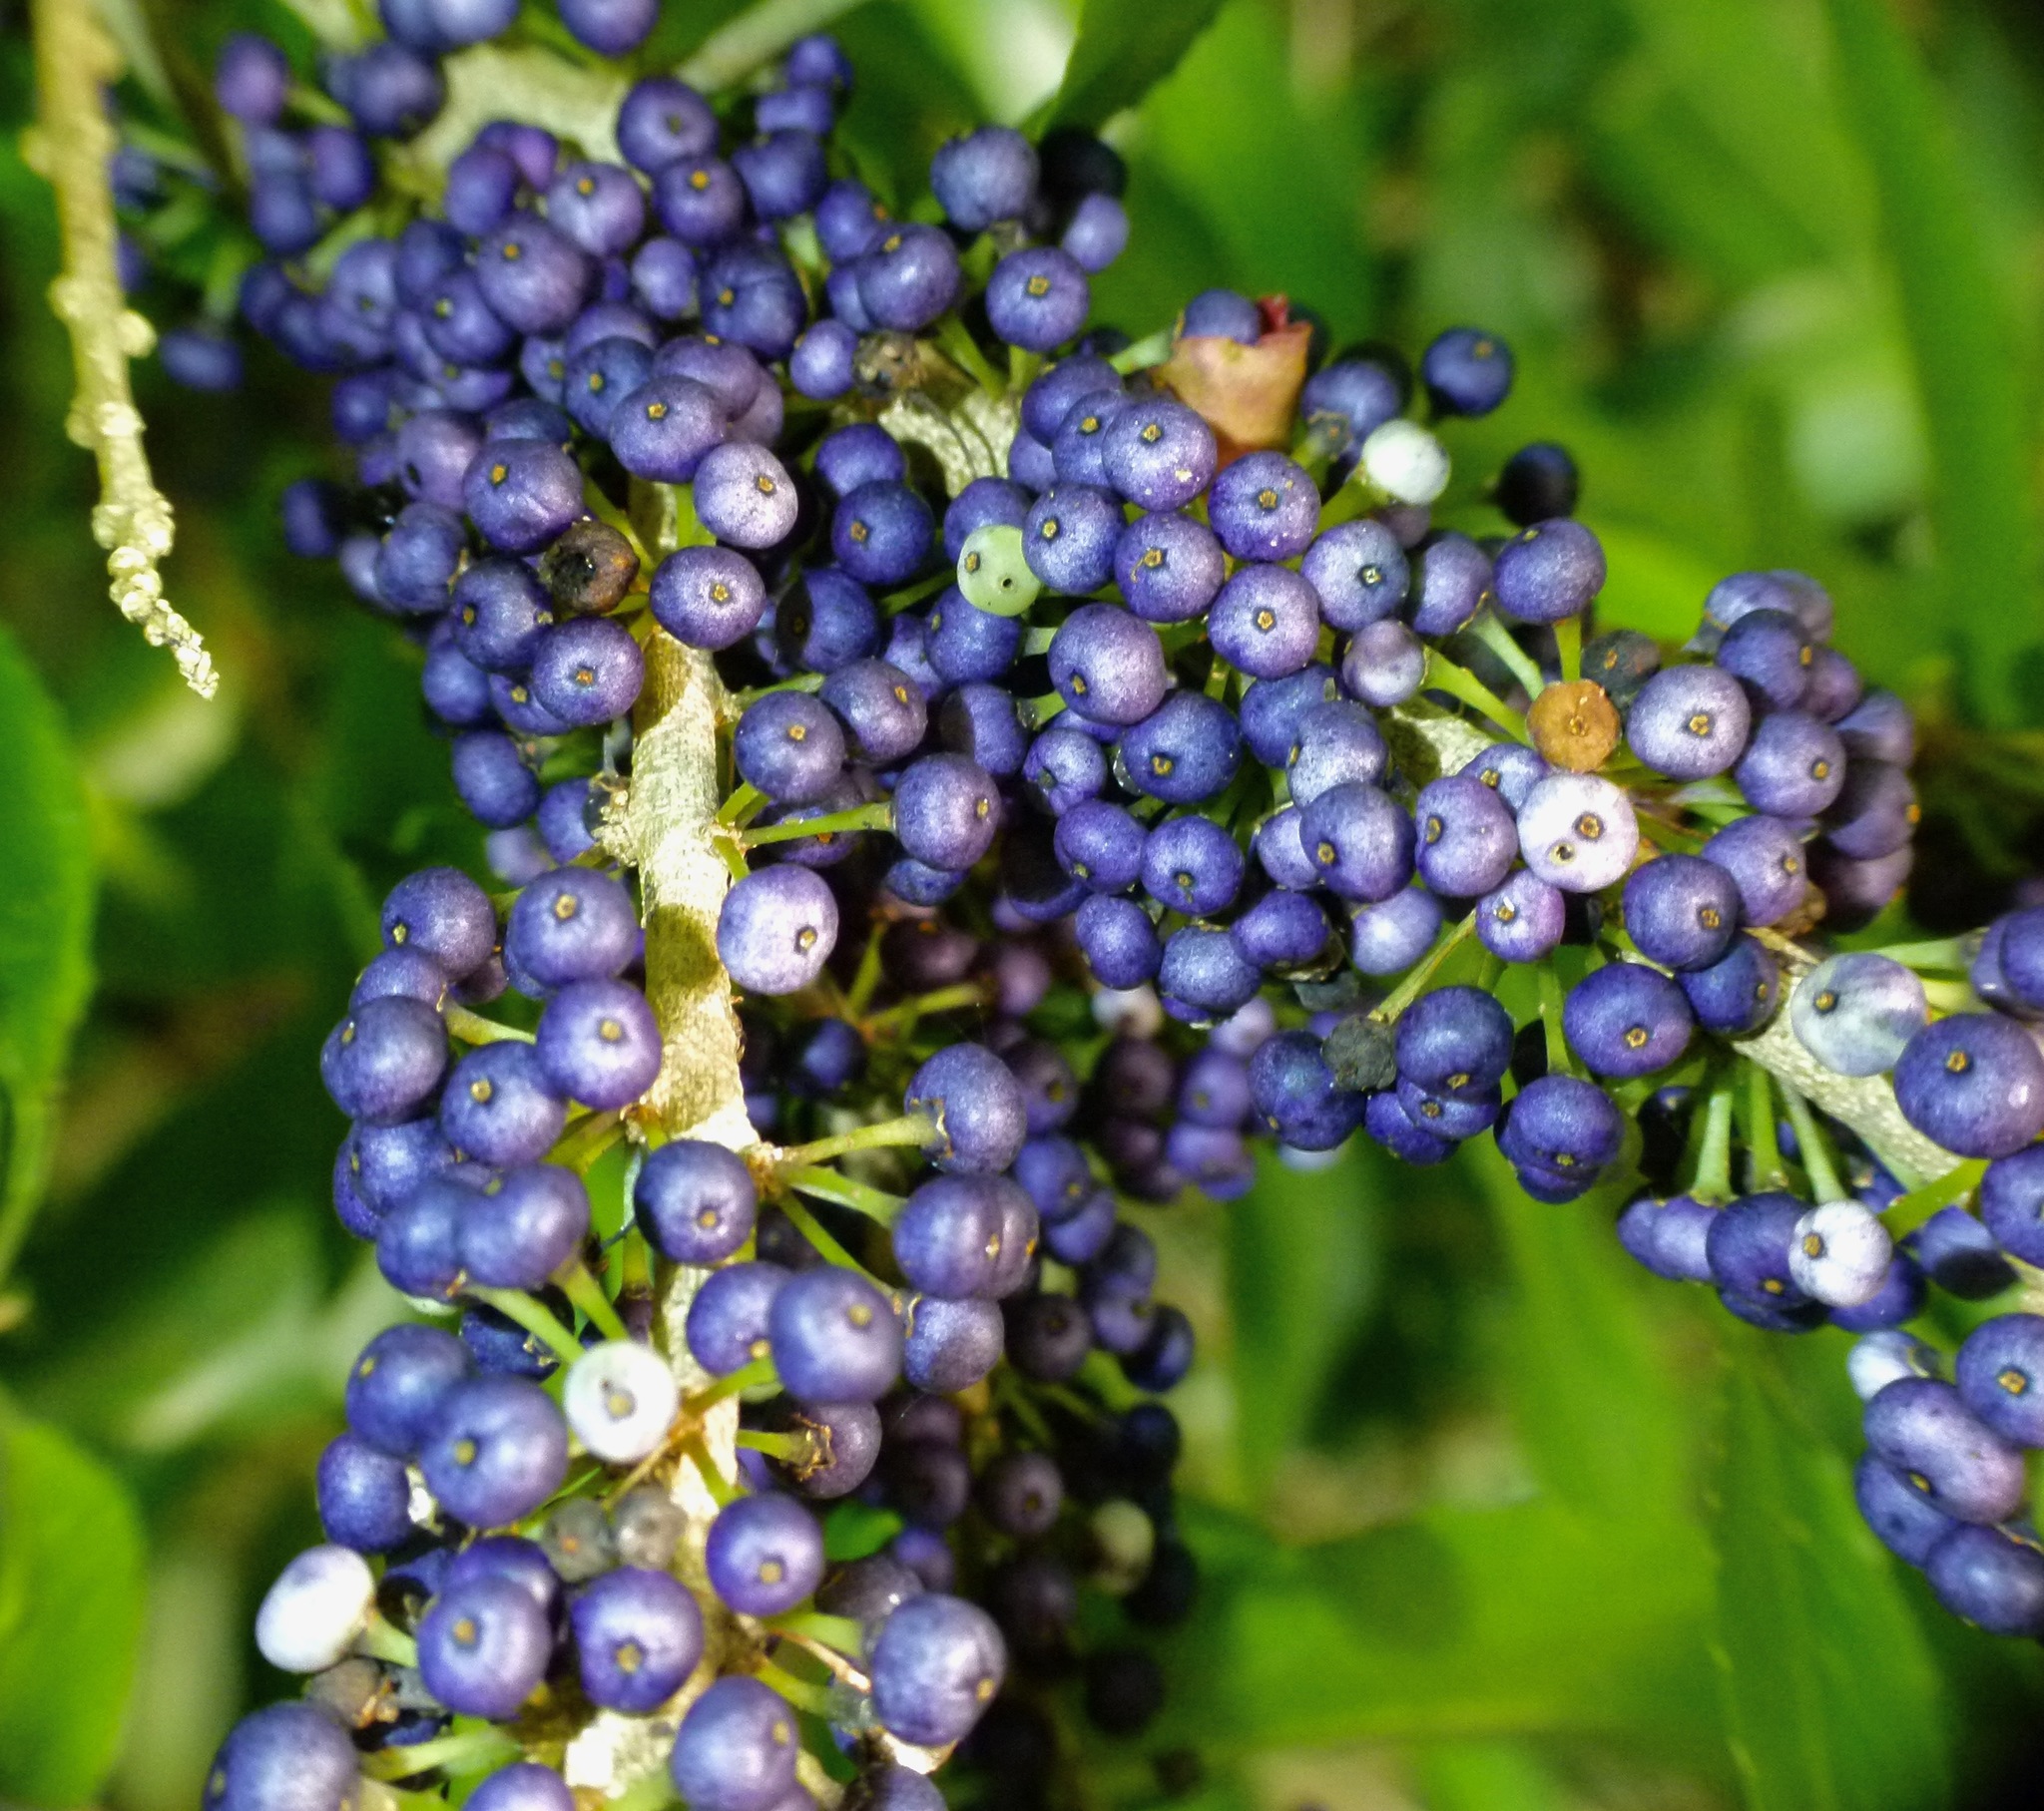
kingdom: Plantae
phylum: Tracheophyta
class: Magnoliopsida
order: Malpighiales
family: Violaceae
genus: Melicytus
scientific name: Melicytus ramiflorus
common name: Mahoe
